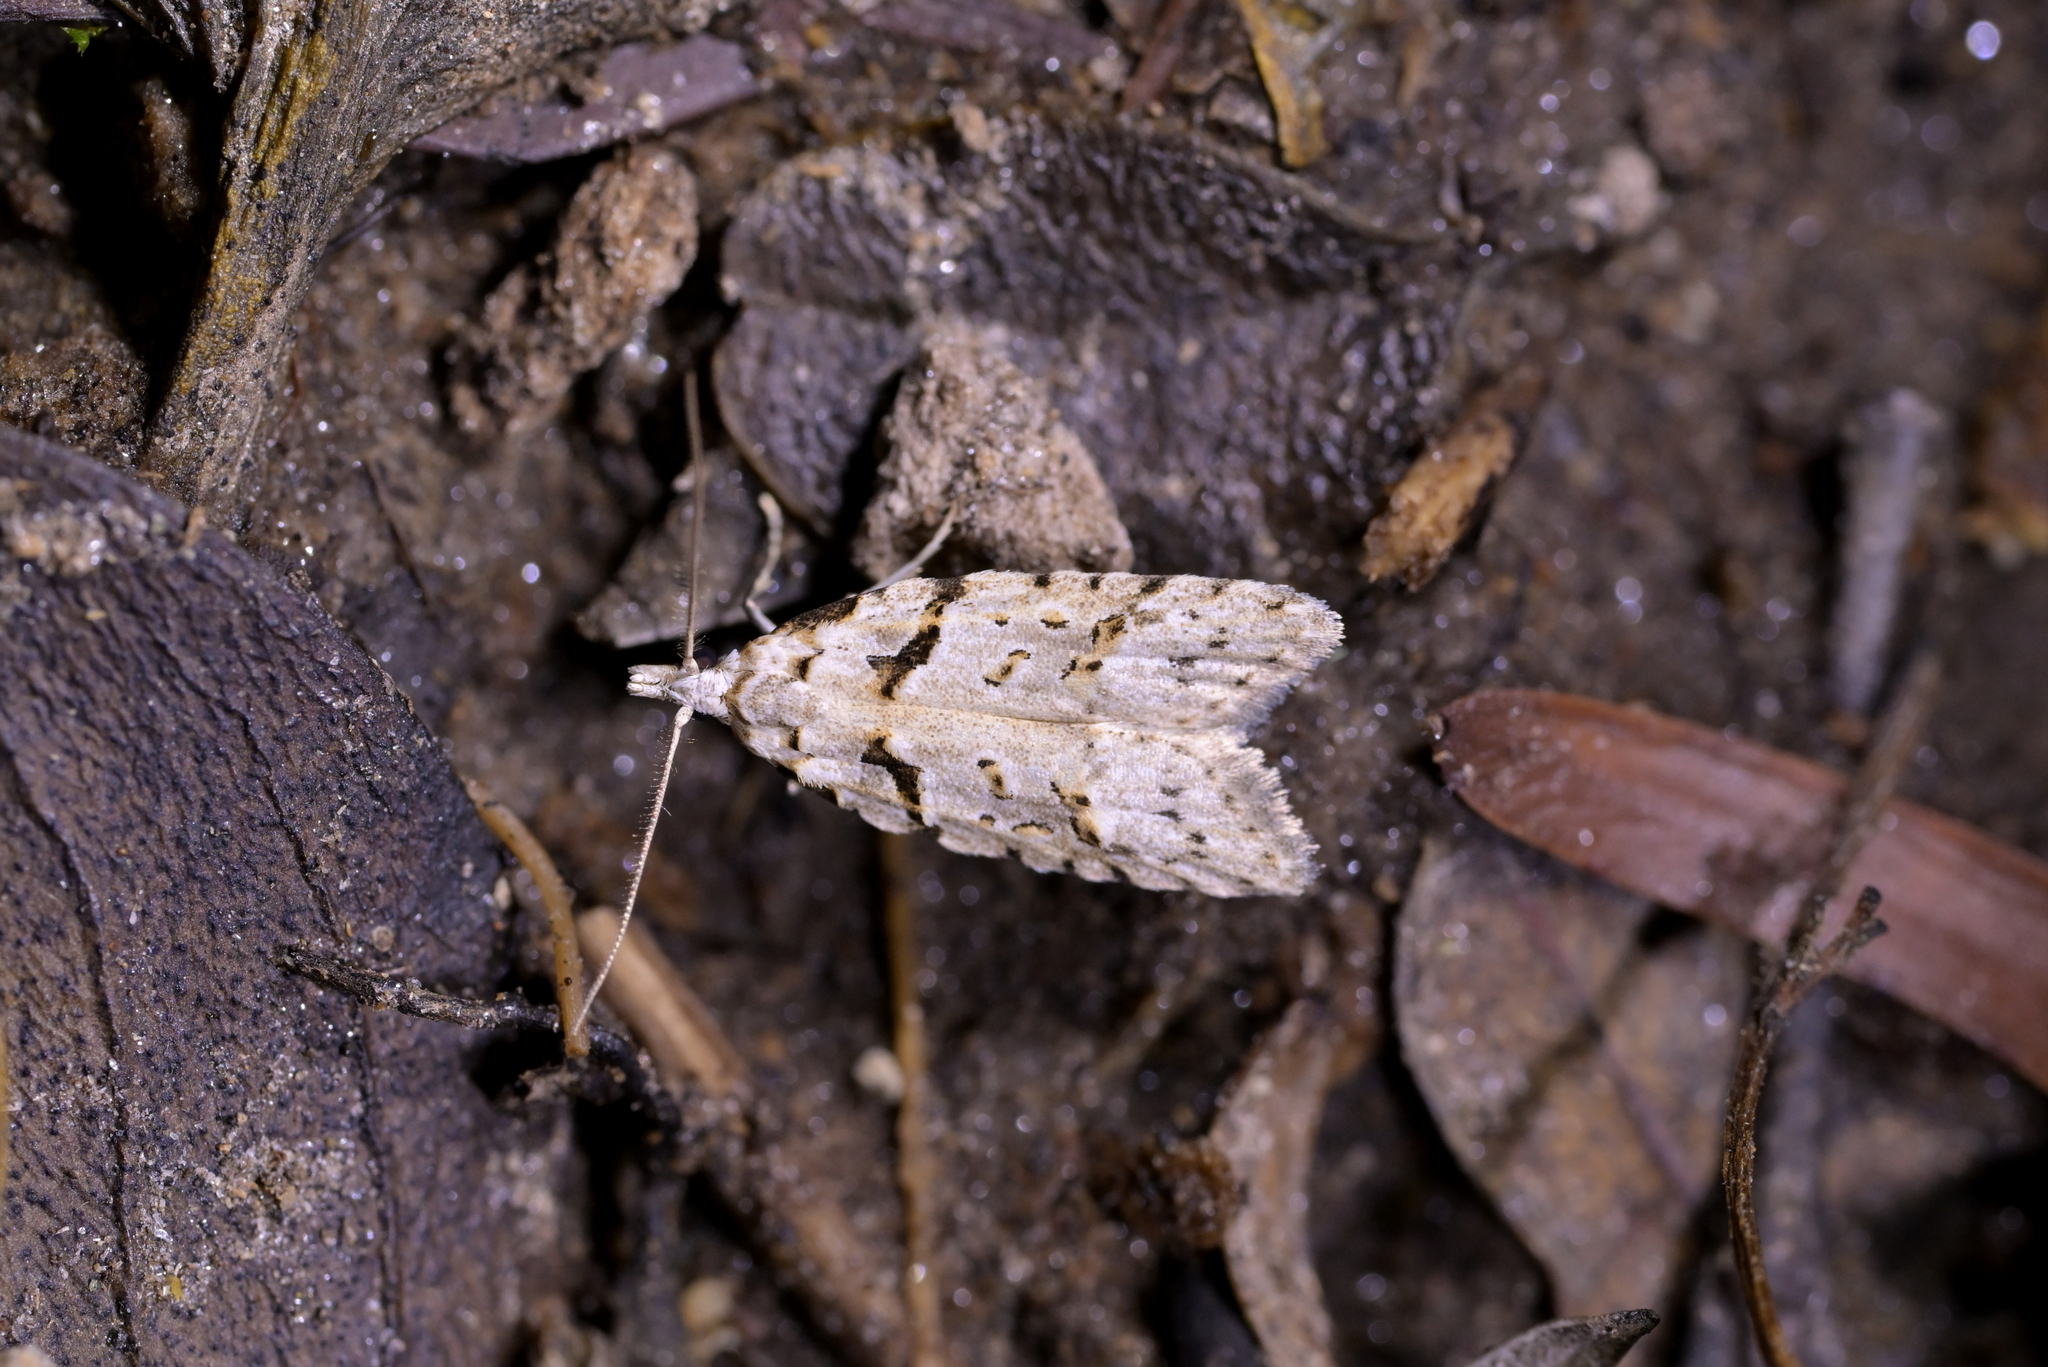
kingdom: Animalia
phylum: Arthropoda
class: Insecta
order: Lepidoptera
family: Carposinidae
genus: Carposina
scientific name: Carposina
